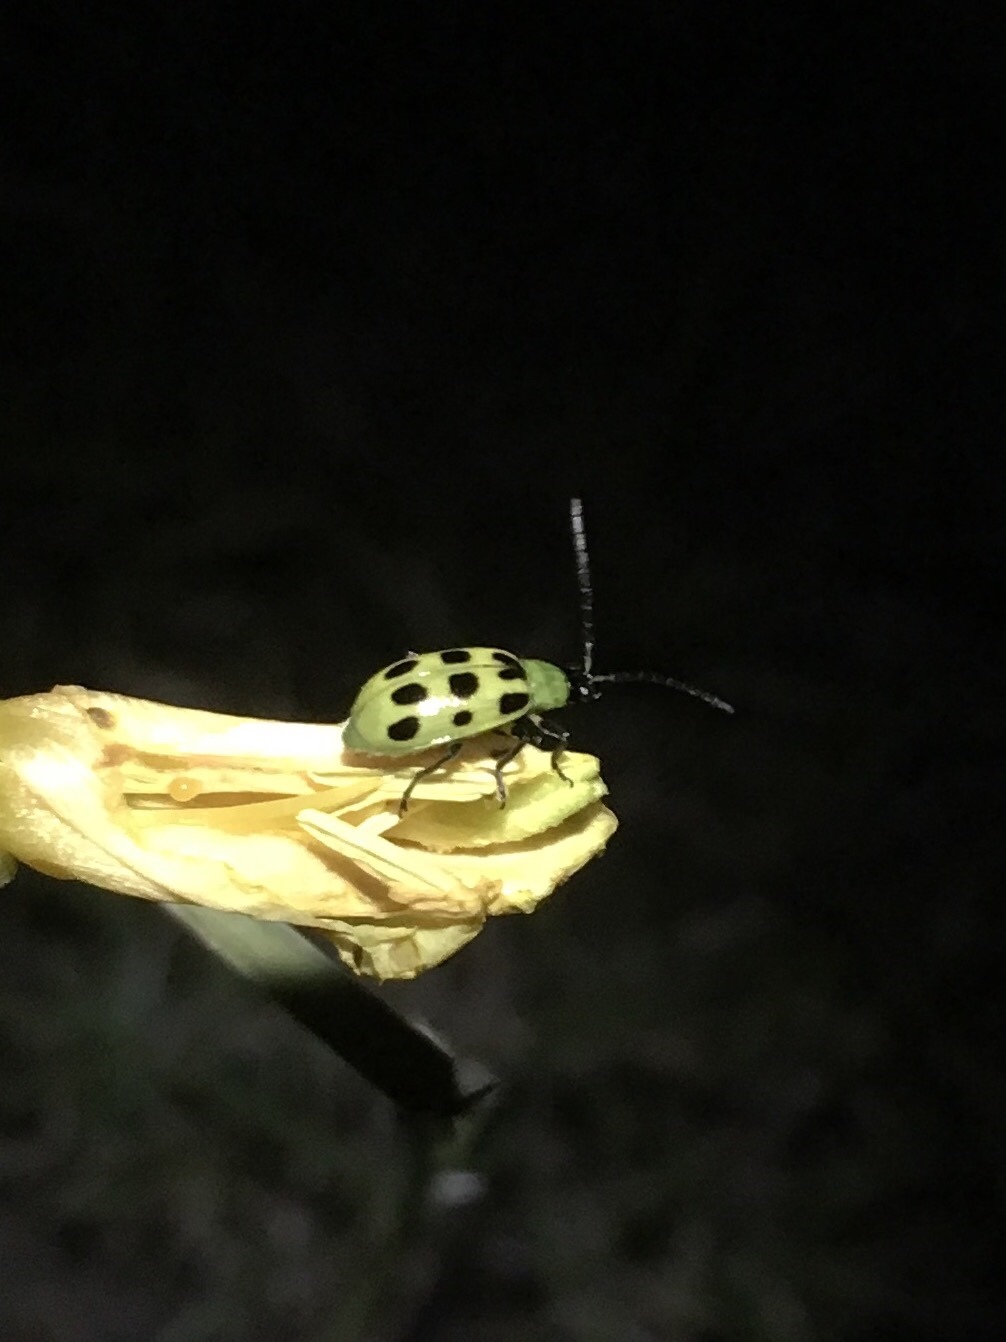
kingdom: Animalia
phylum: Arthropoda
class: Insecta
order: Coleoptera
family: Chrysomelidae
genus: Diabrotica
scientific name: Diabrotica undecimpunctata
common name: Spotted cucumber beetle
